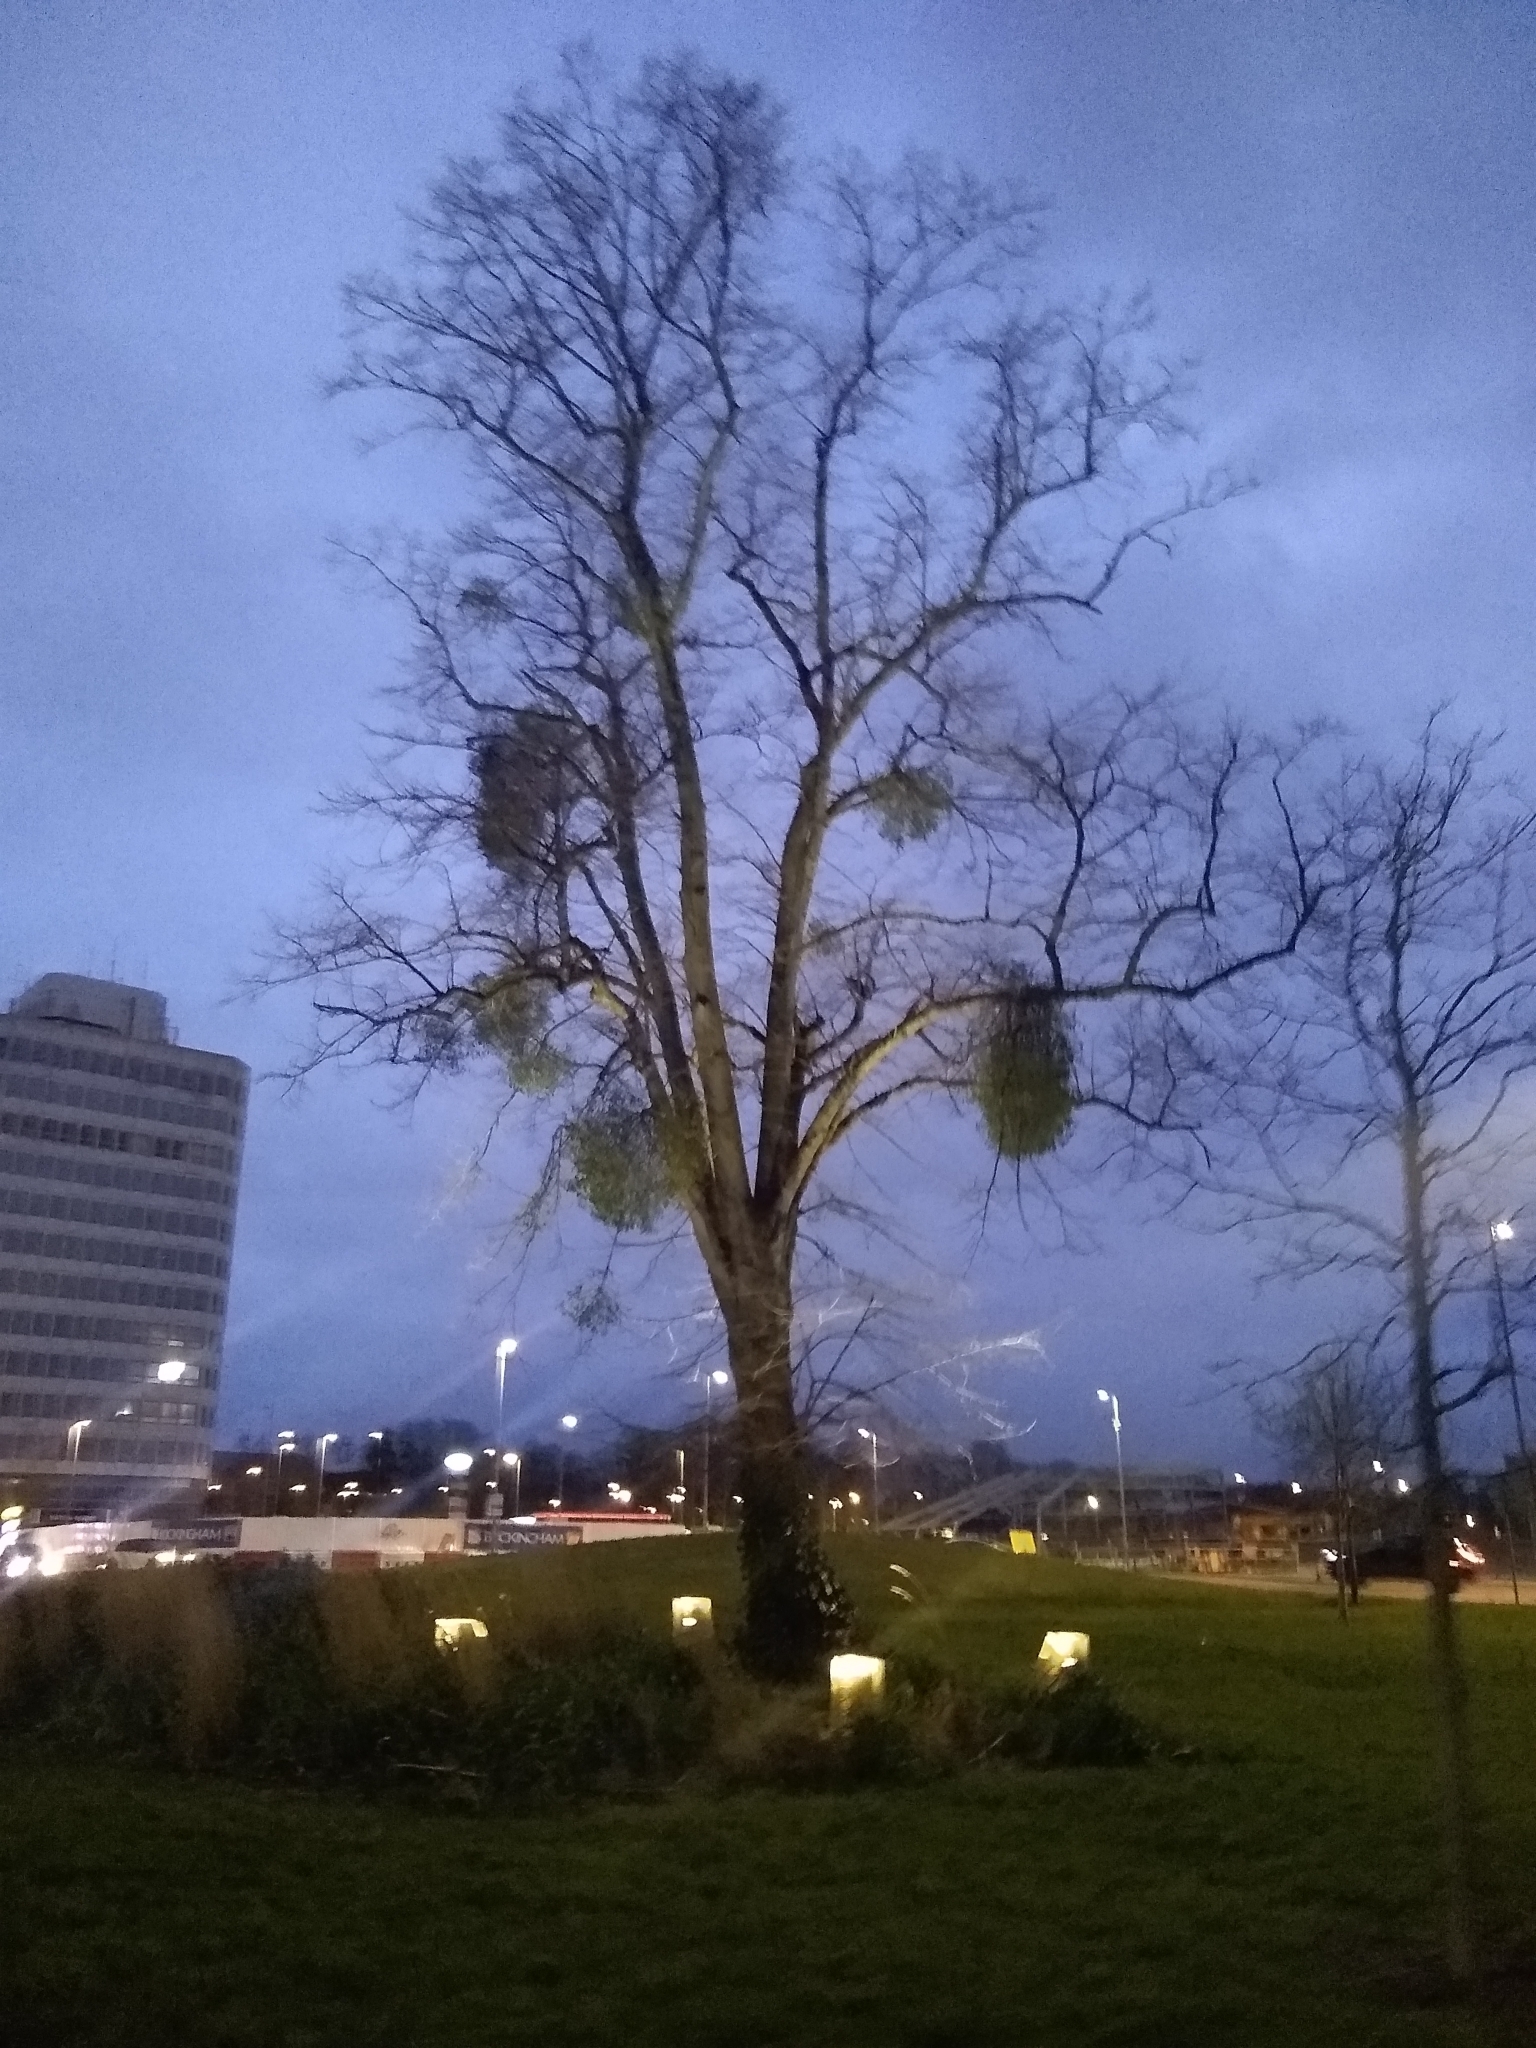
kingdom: Plantae
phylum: Tracheophyta
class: Magnoliopsida
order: Santalales
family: Viscaceae
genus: Viscum
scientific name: Viscum album
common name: Mistletoe
